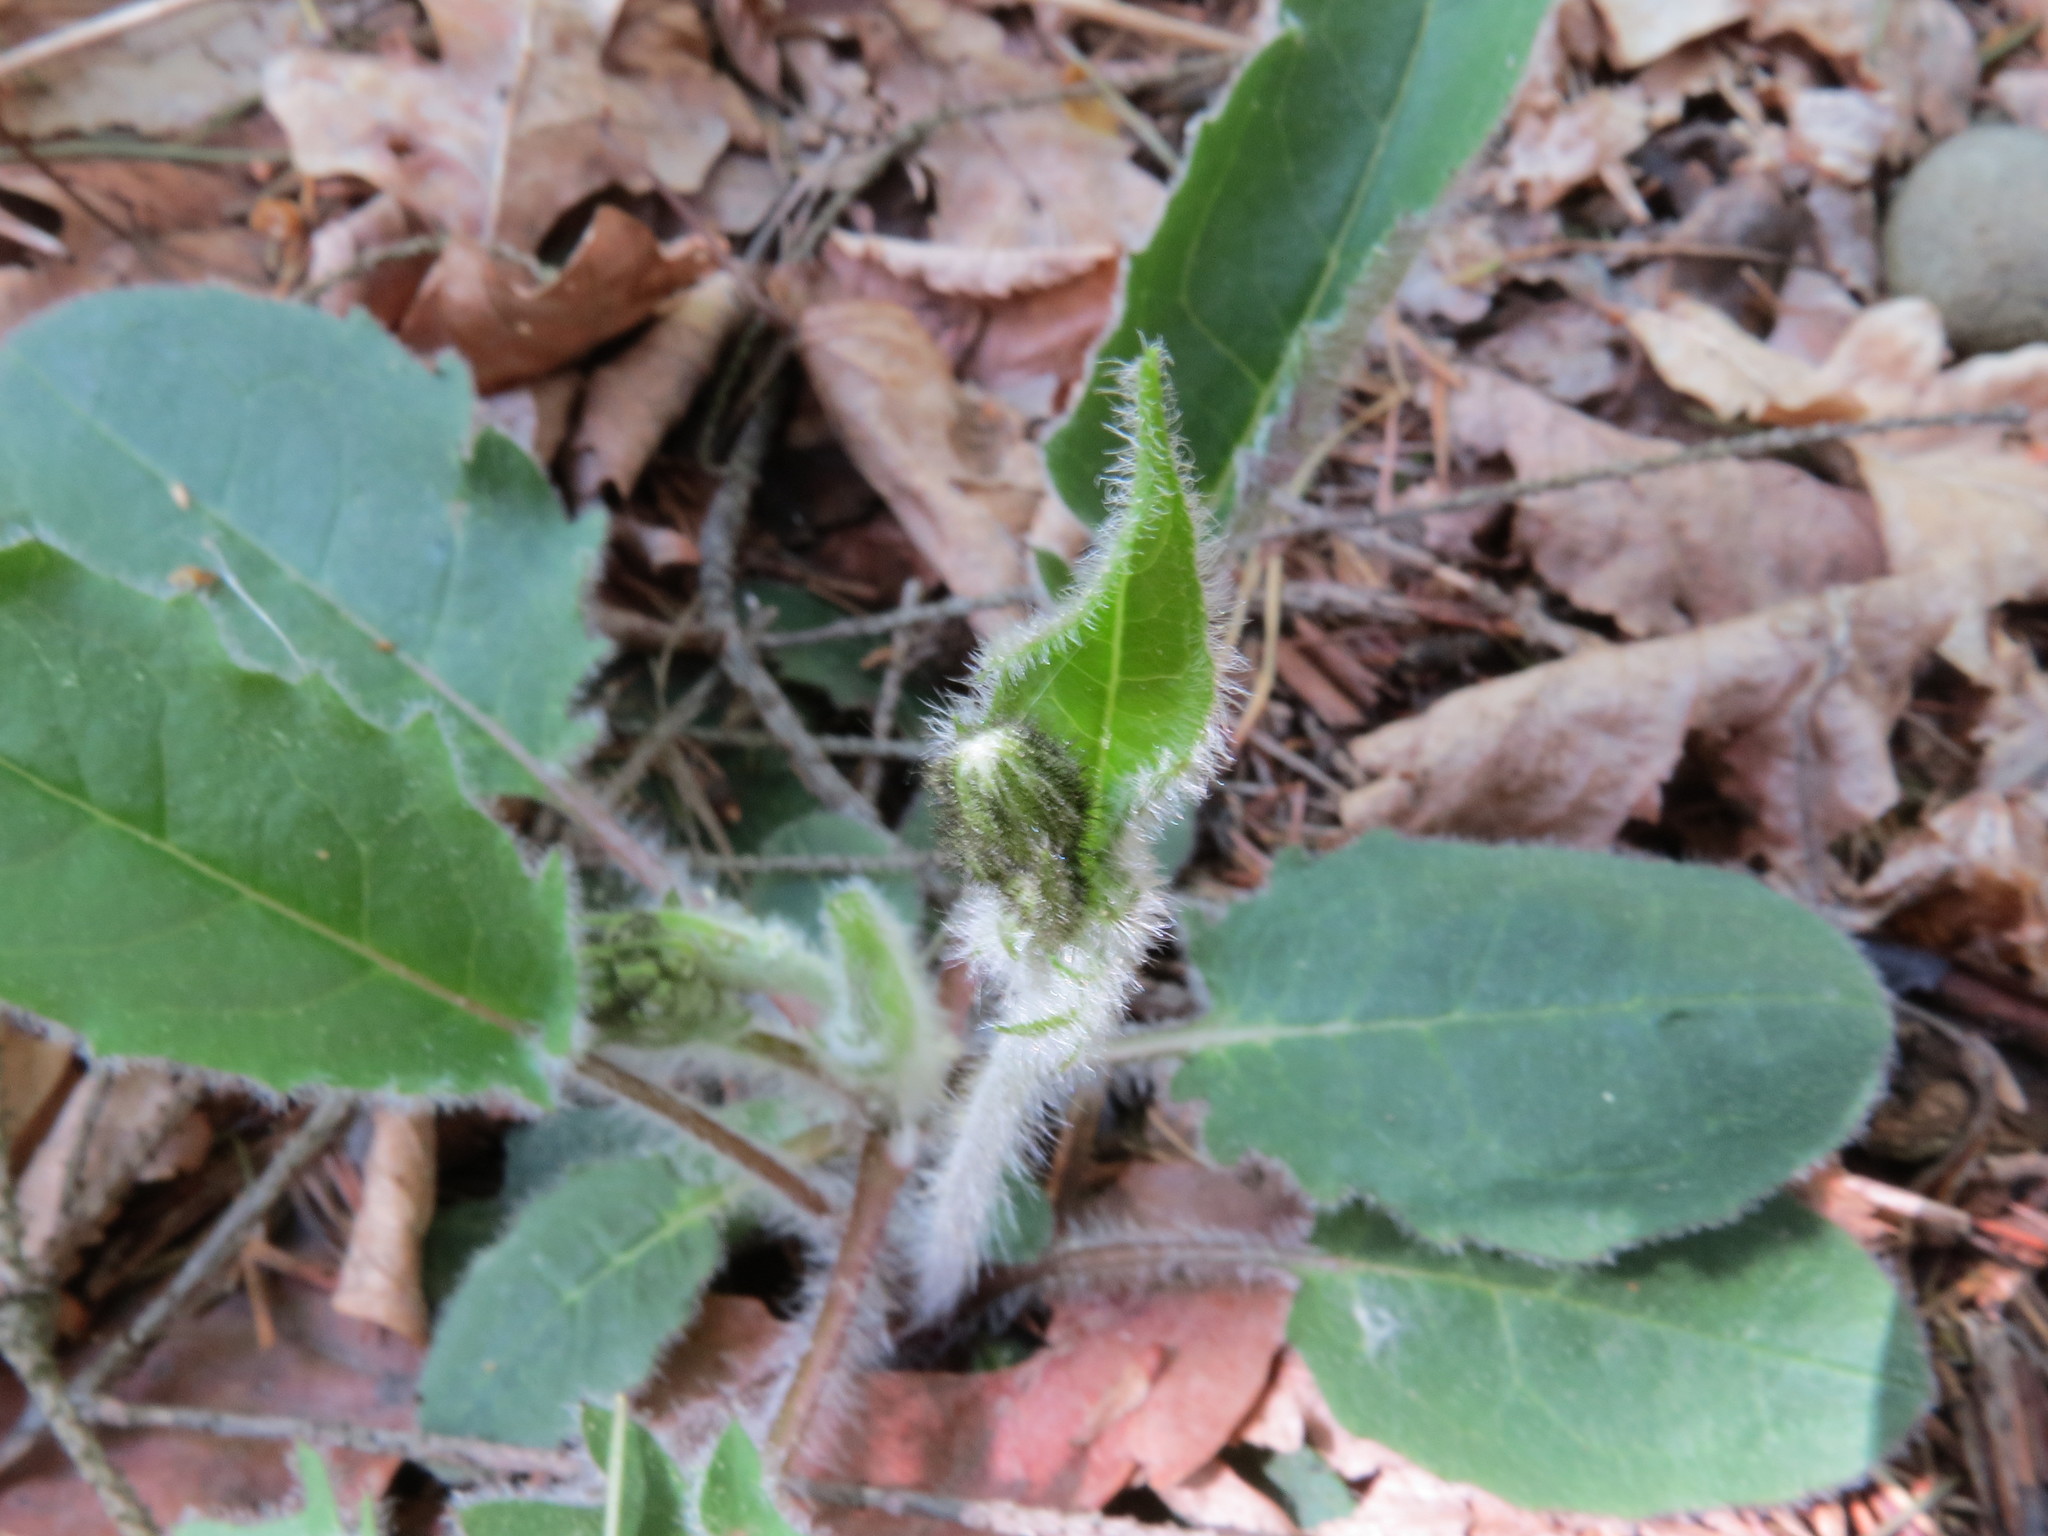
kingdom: Plantae
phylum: Tracheophyta
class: Magnoliopsida
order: Asterales
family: Asteraceae
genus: Hieracium
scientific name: Hieracium murorum
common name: Wall hawkweed
